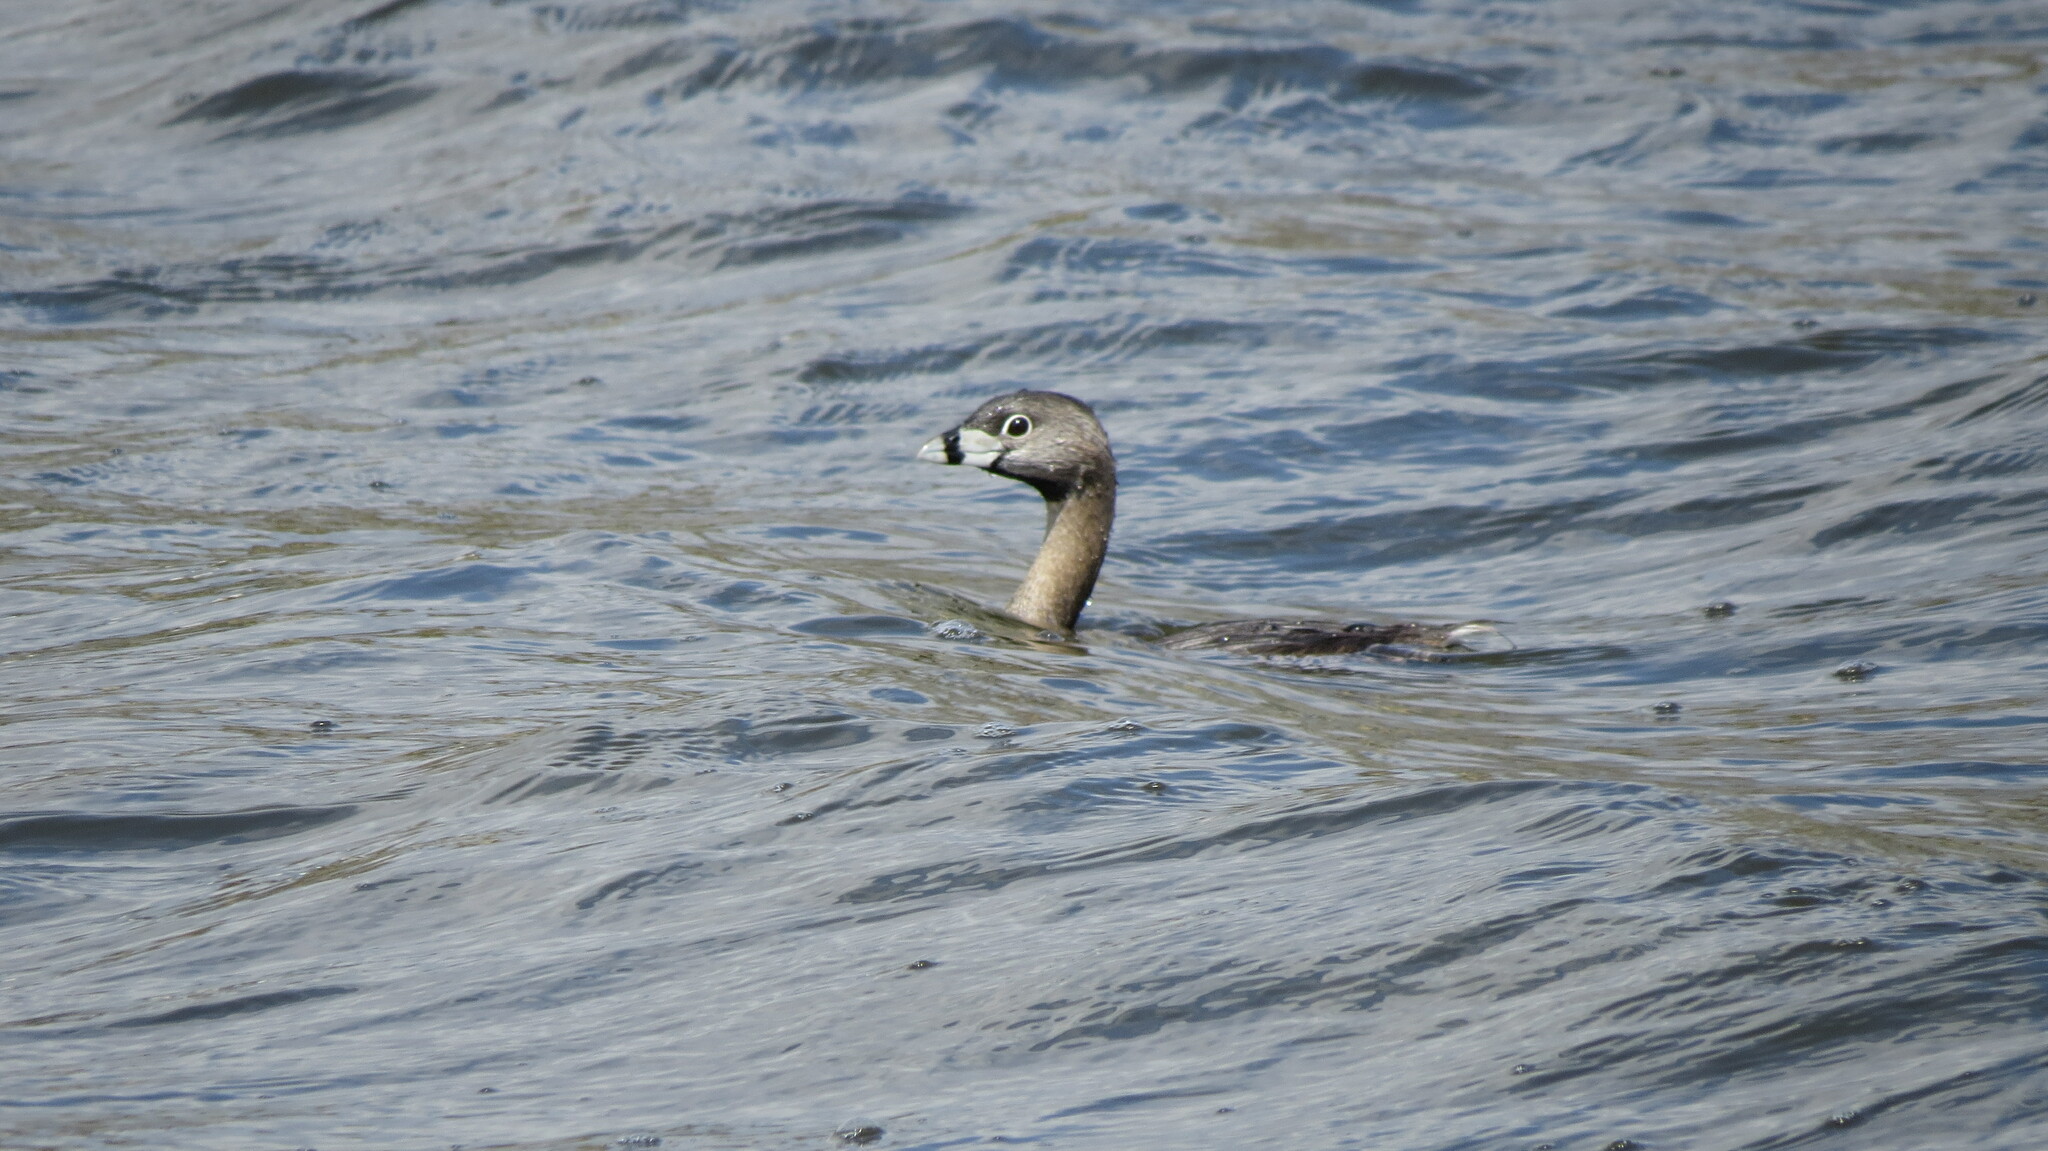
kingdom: Animalia
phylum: Chordata
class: Aves
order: Podicipediformes
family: Podicipedidae
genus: Podilymbus
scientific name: Podilymbus podiceps
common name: Pied-billed grebe
